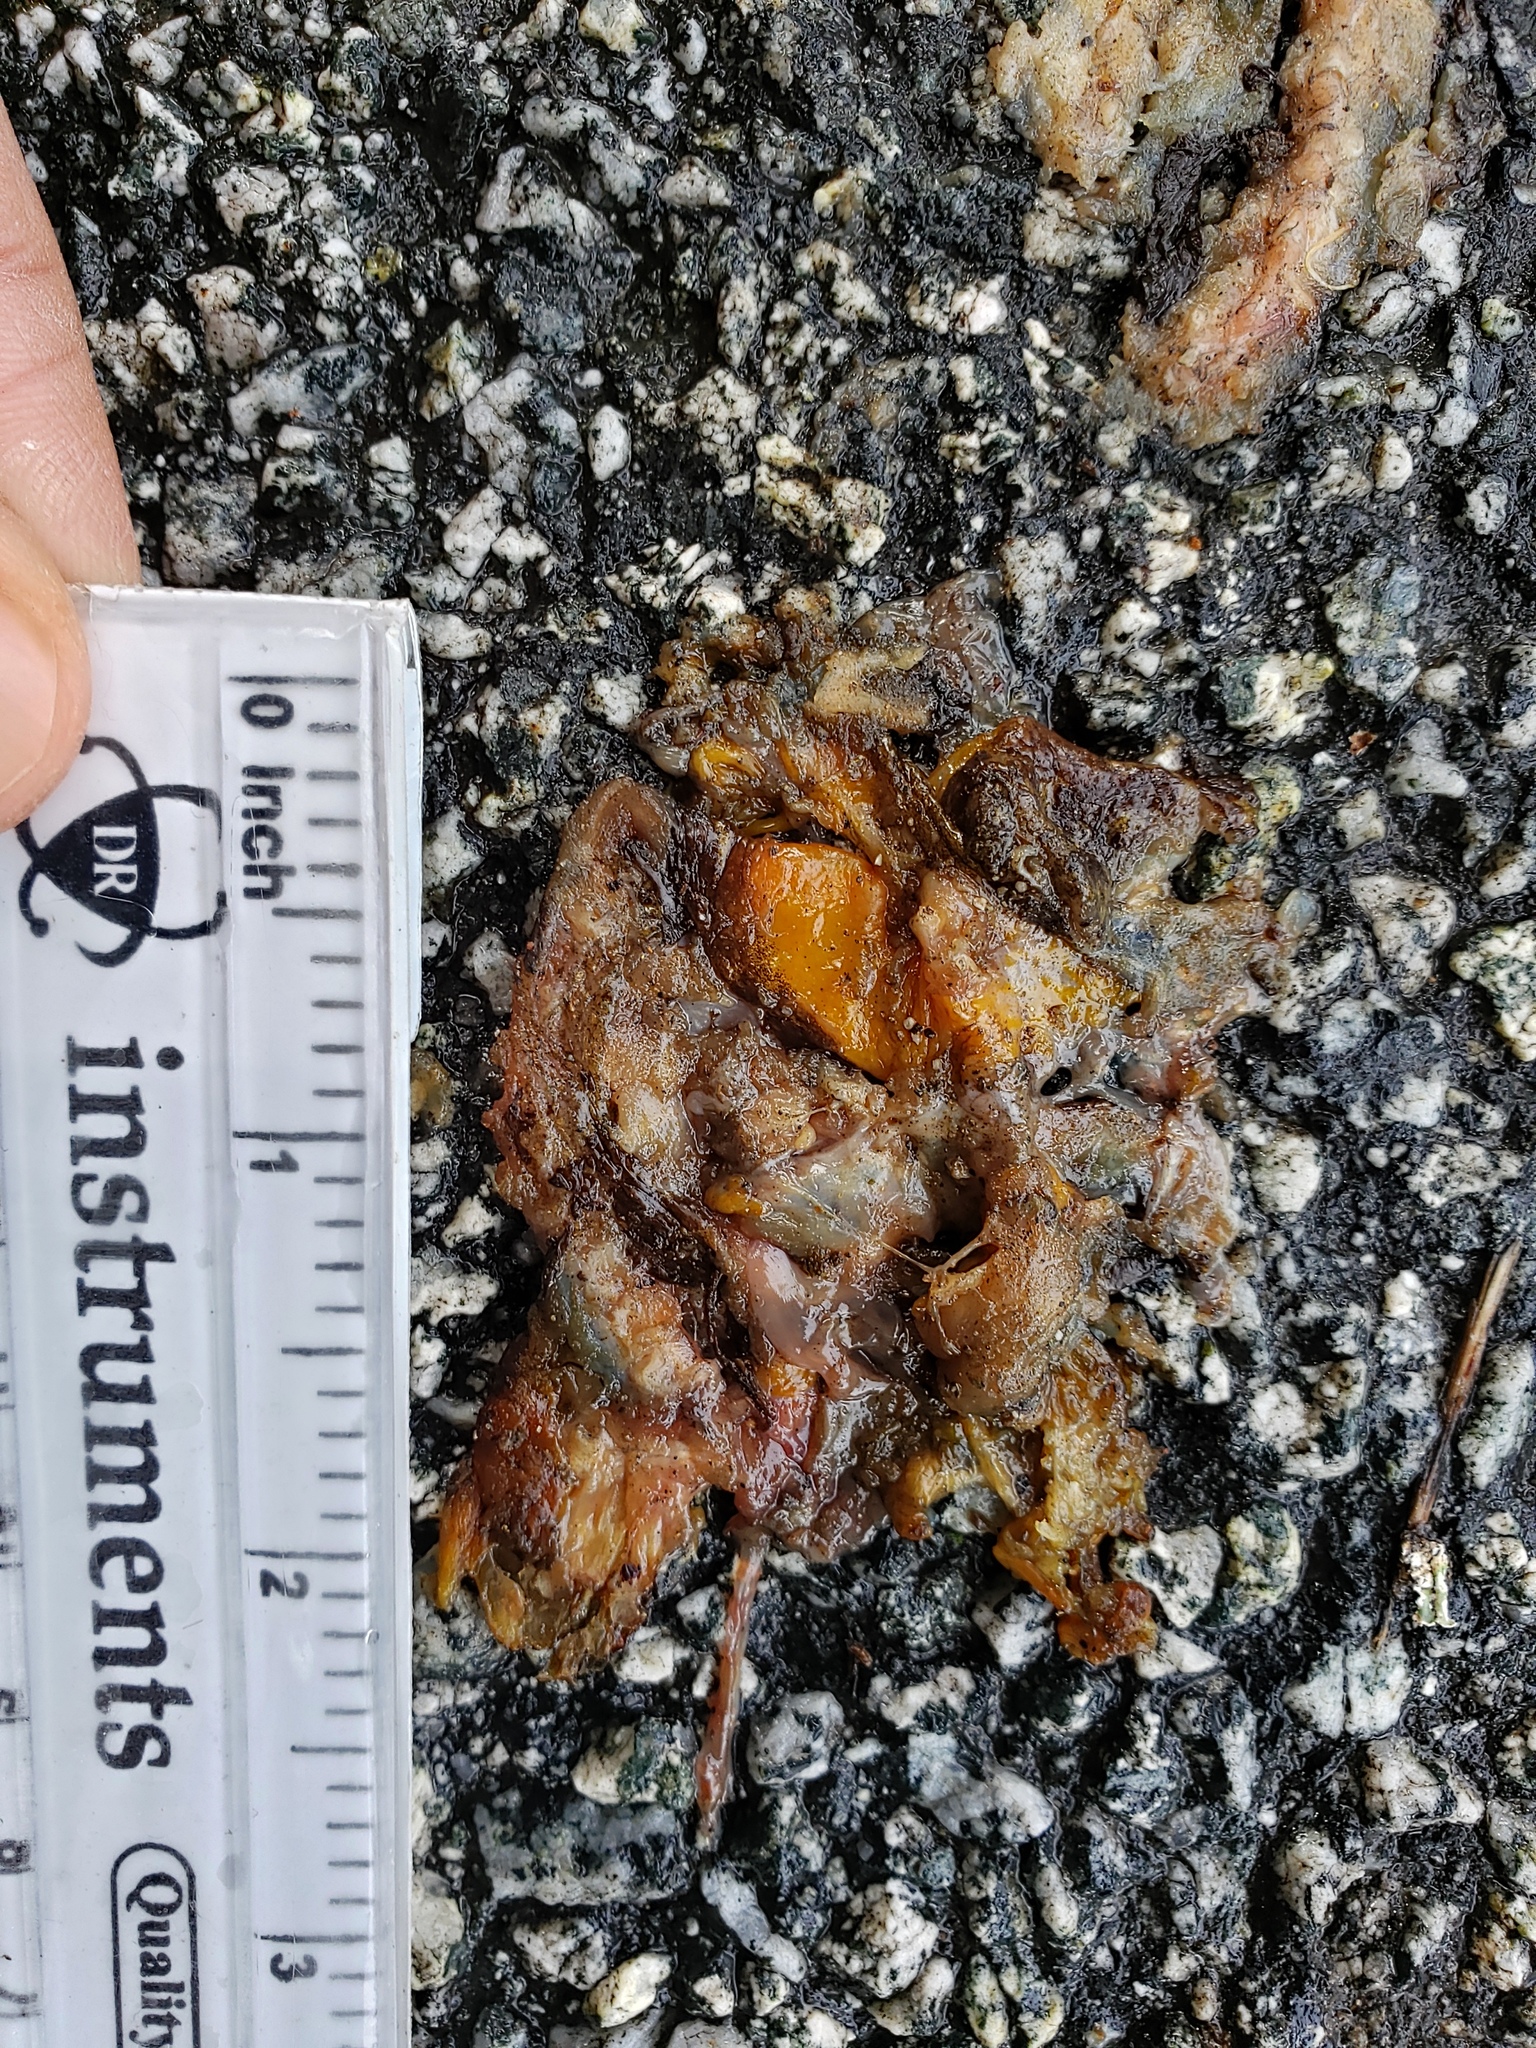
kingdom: Animalia
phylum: Chordata
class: Amphibia
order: Caudata
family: Salamandridae
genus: Taricha
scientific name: Taricha
